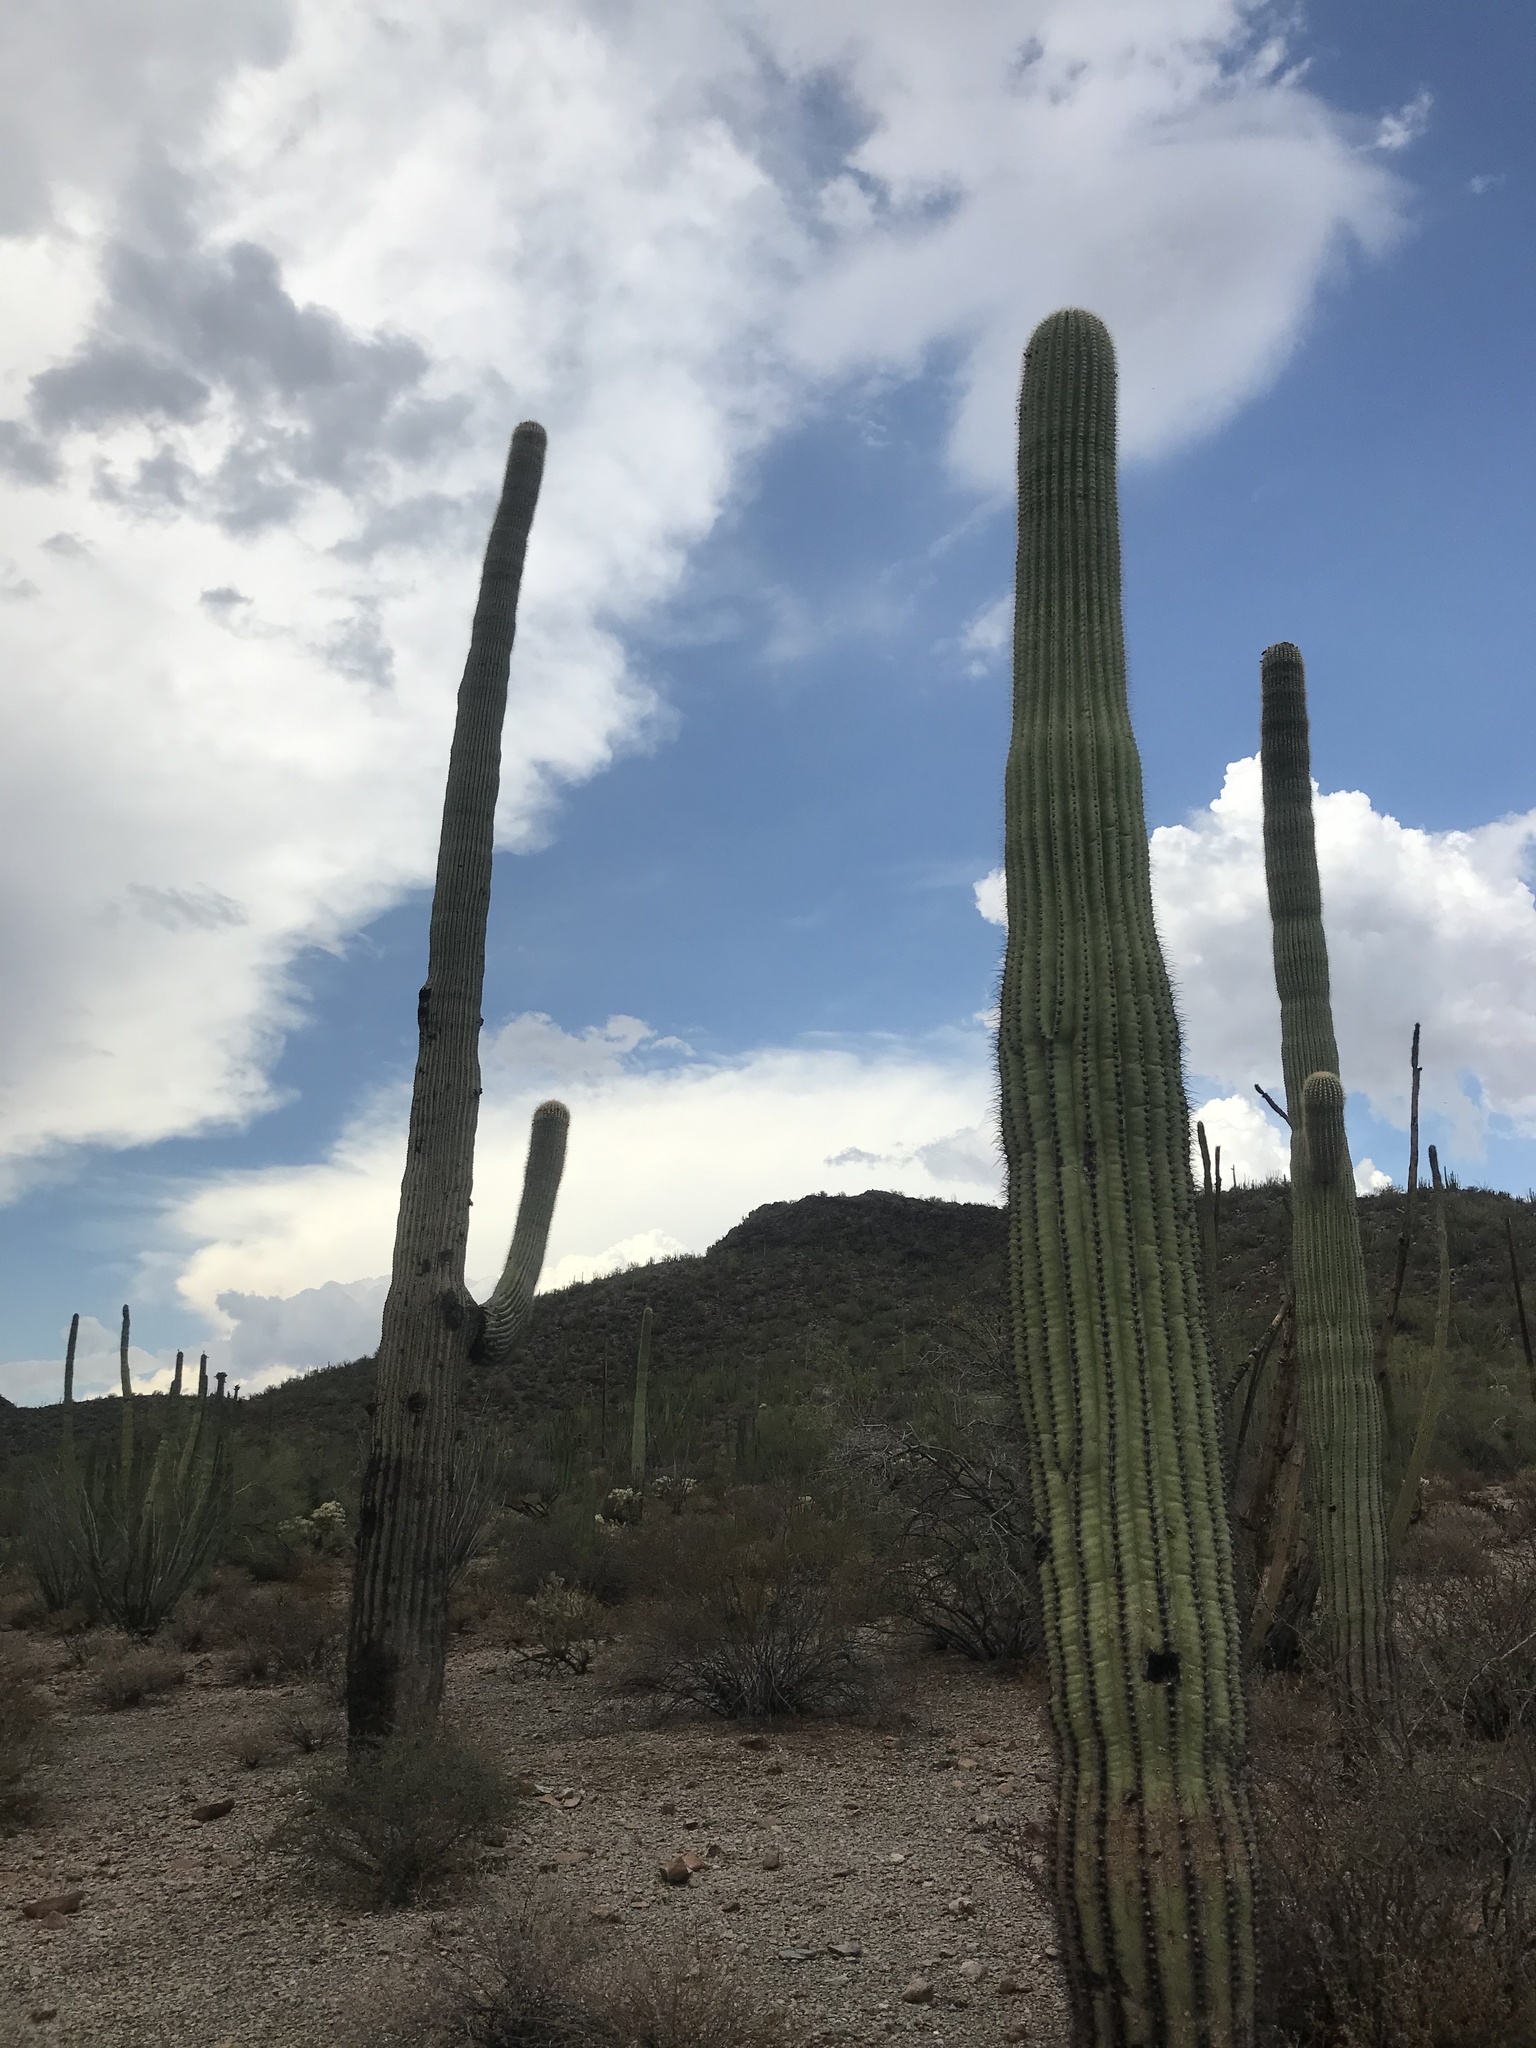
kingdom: Plantae
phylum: Tracheophyta
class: Magnoliopsida
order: Caryophyllales
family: Cactaceae
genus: Carnegiea
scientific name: Carnegiea gigantea
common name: Saguaro
